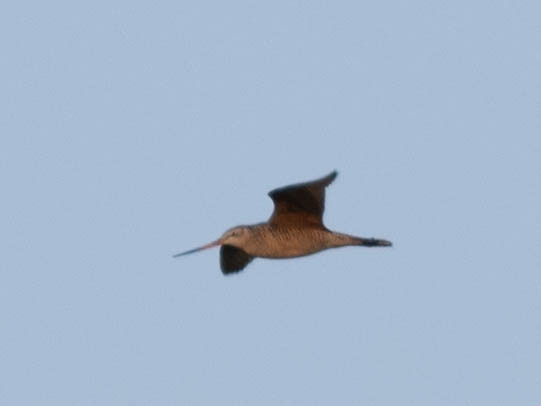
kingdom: Animalia
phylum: Chordata
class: Aves
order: Charadriiformes
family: Scolopacidae
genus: Limosa
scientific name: Limosa fedoa
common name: Marbled godwit
